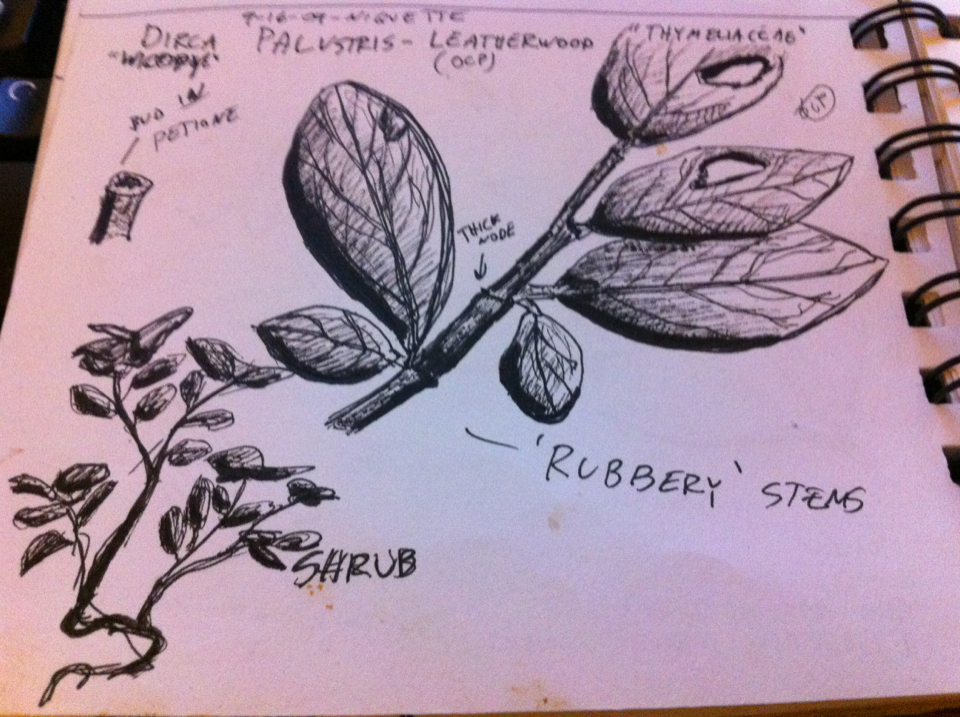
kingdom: Plantae
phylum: Tracheophyta
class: Magnoliopsida
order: Malvales
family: Thymelaeaceae
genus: Dirca
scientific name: Dirca palustris
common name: Leatherwood
